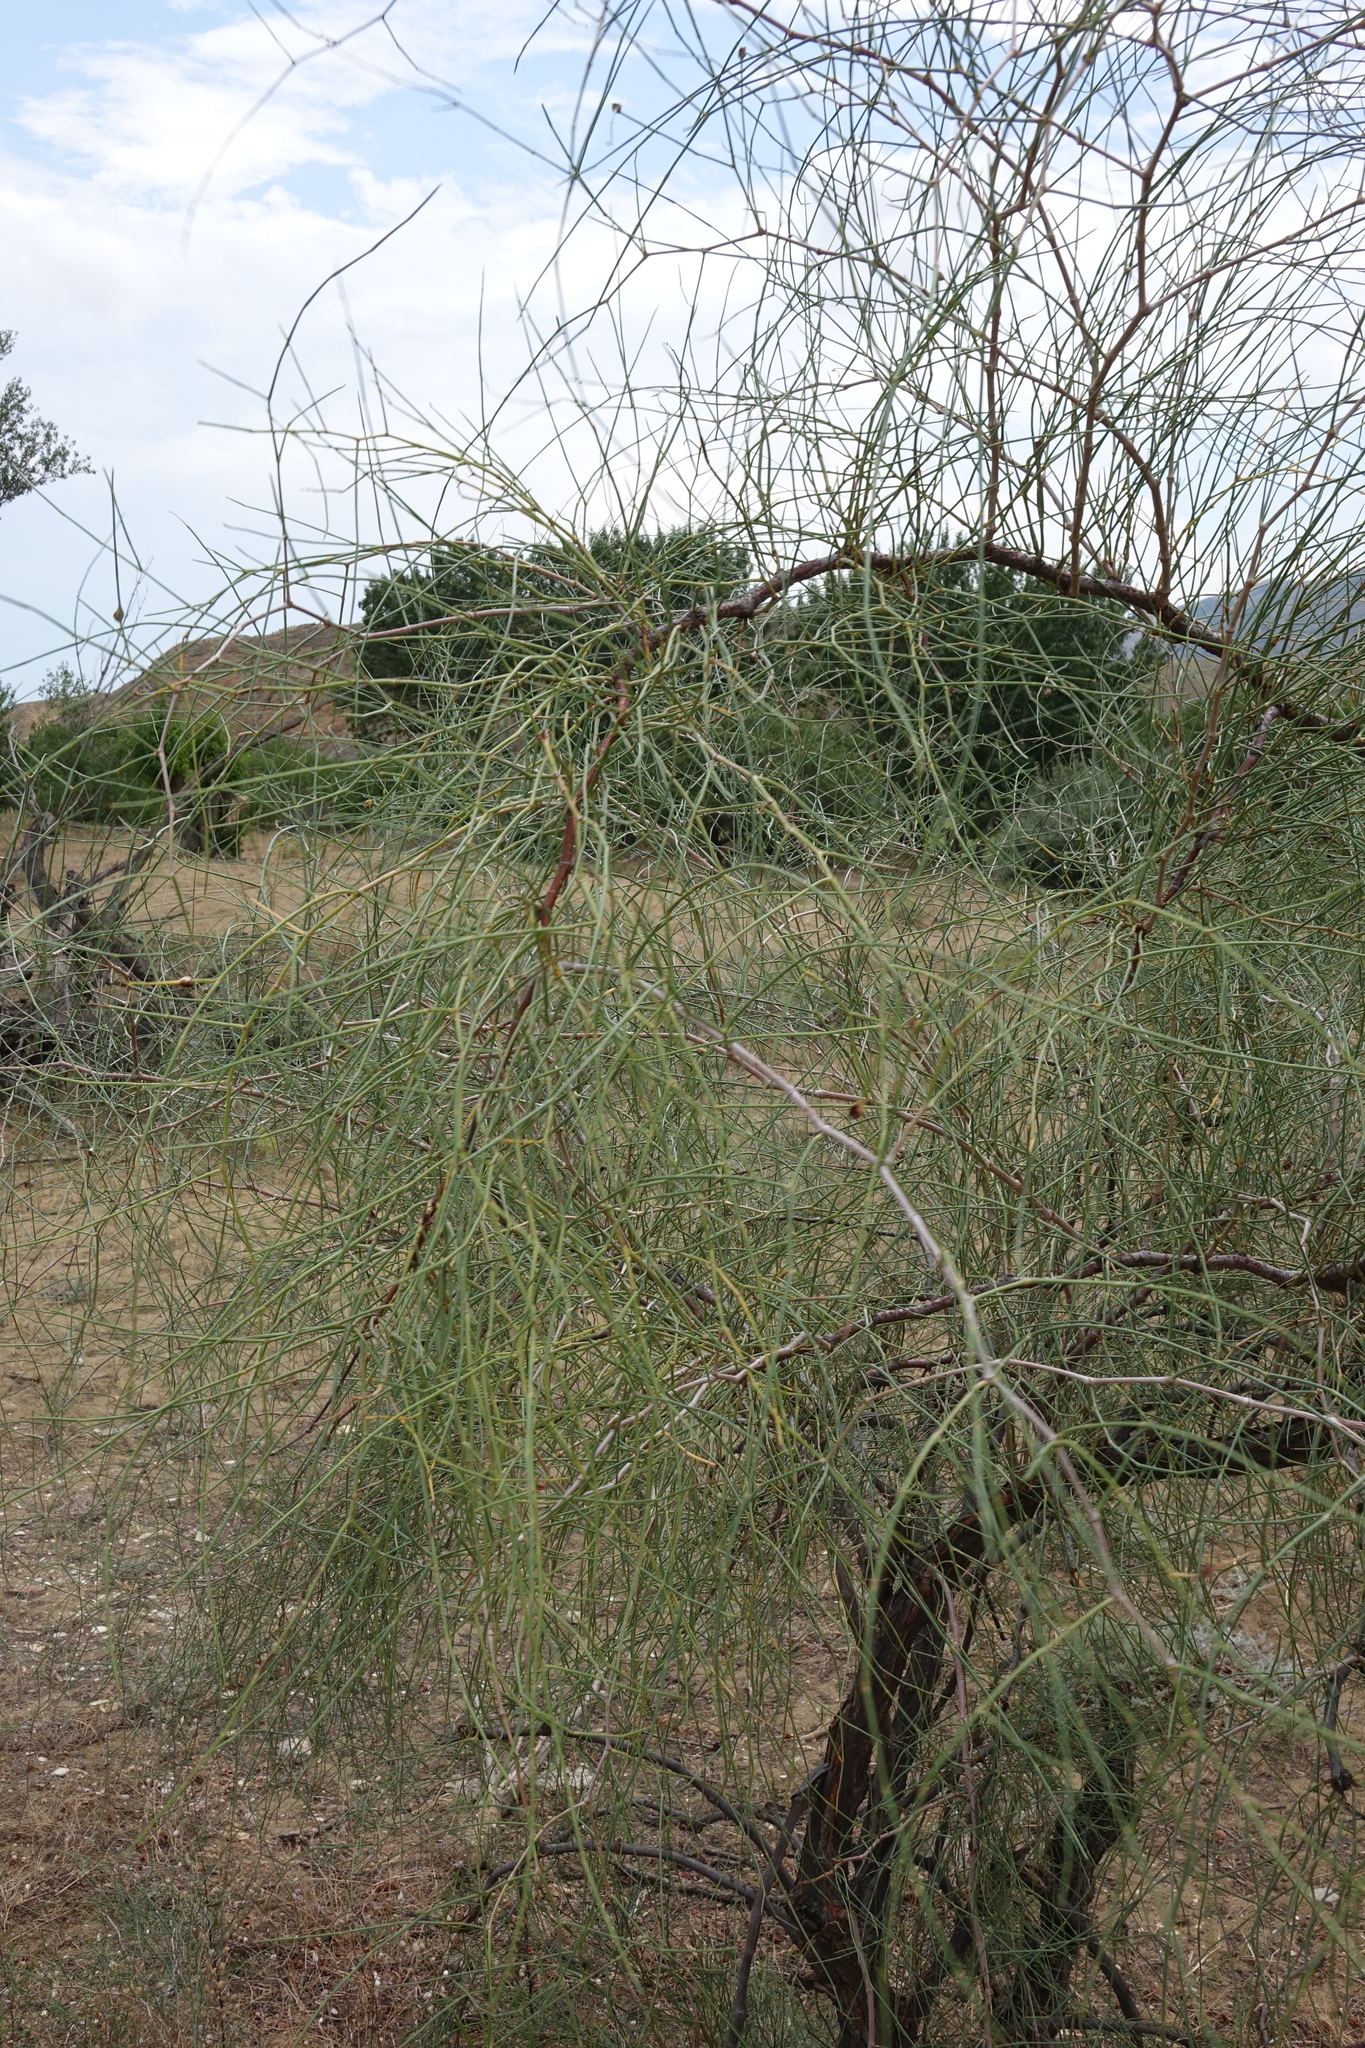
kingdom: Plantae
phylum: Tracheophyta
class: Magnoliopsida
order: Caryophyllales
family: Polygonaceae
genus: Calligonum
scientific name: Calligonum aphyllum
